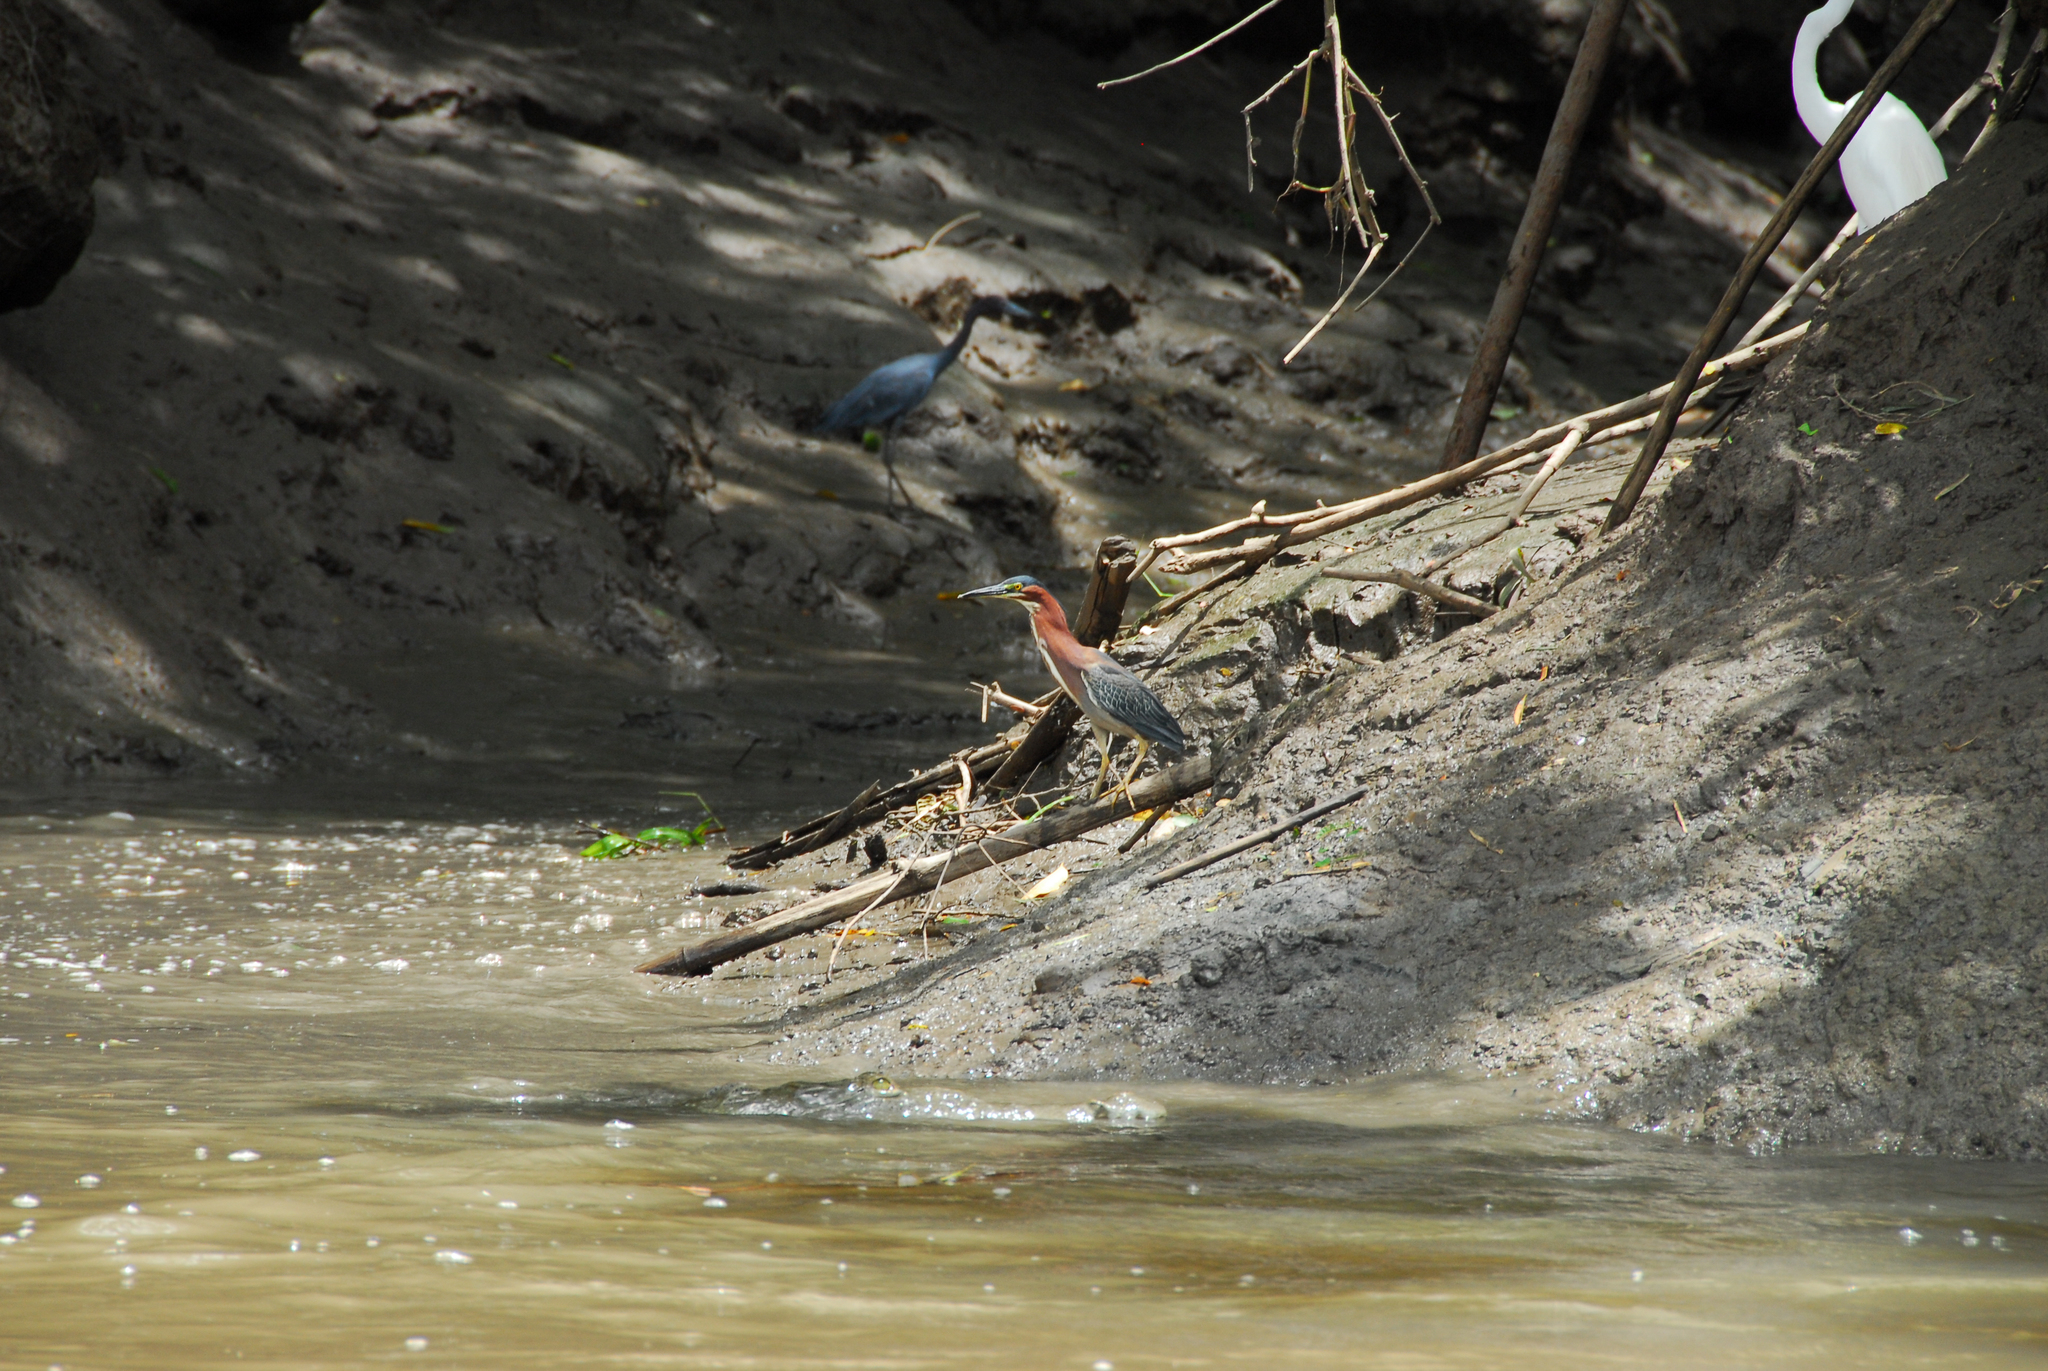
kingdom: Animalia
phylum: Chordata
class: Aves
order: Pelecaniformes
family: Ardeidae
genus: Butorides
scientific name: Butorides virescens
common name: Green heron
